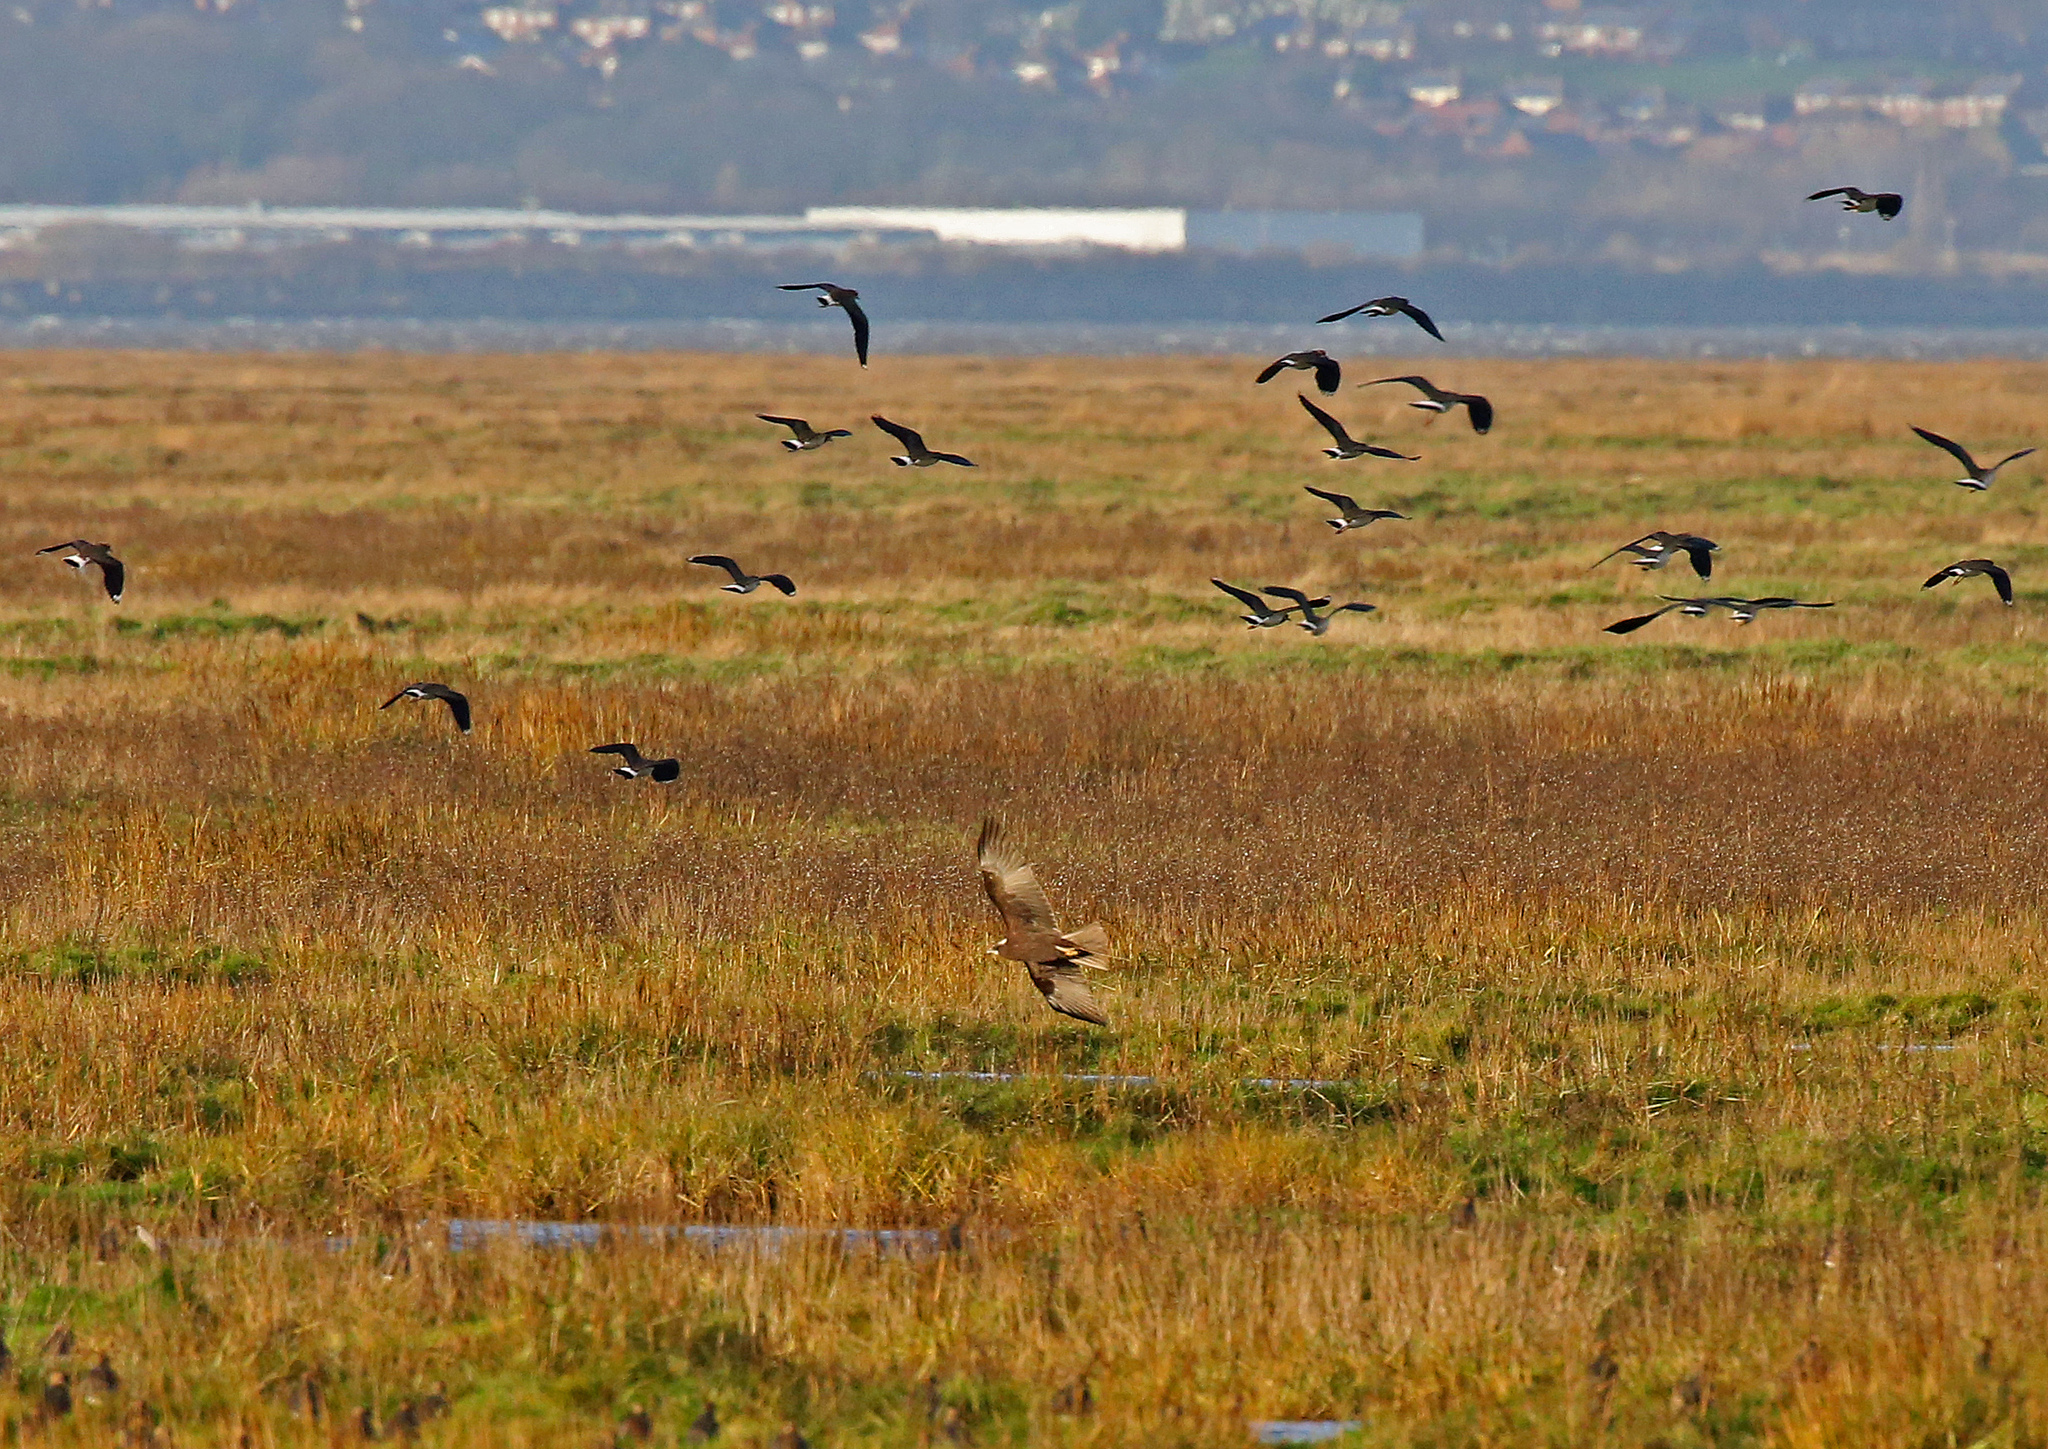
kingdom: Animalia
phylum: Chordata
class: Aves
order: Accipitriformes
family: Accipitridae
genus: Circus
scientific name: Circus aeruginosus
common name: Western marsh harrier
